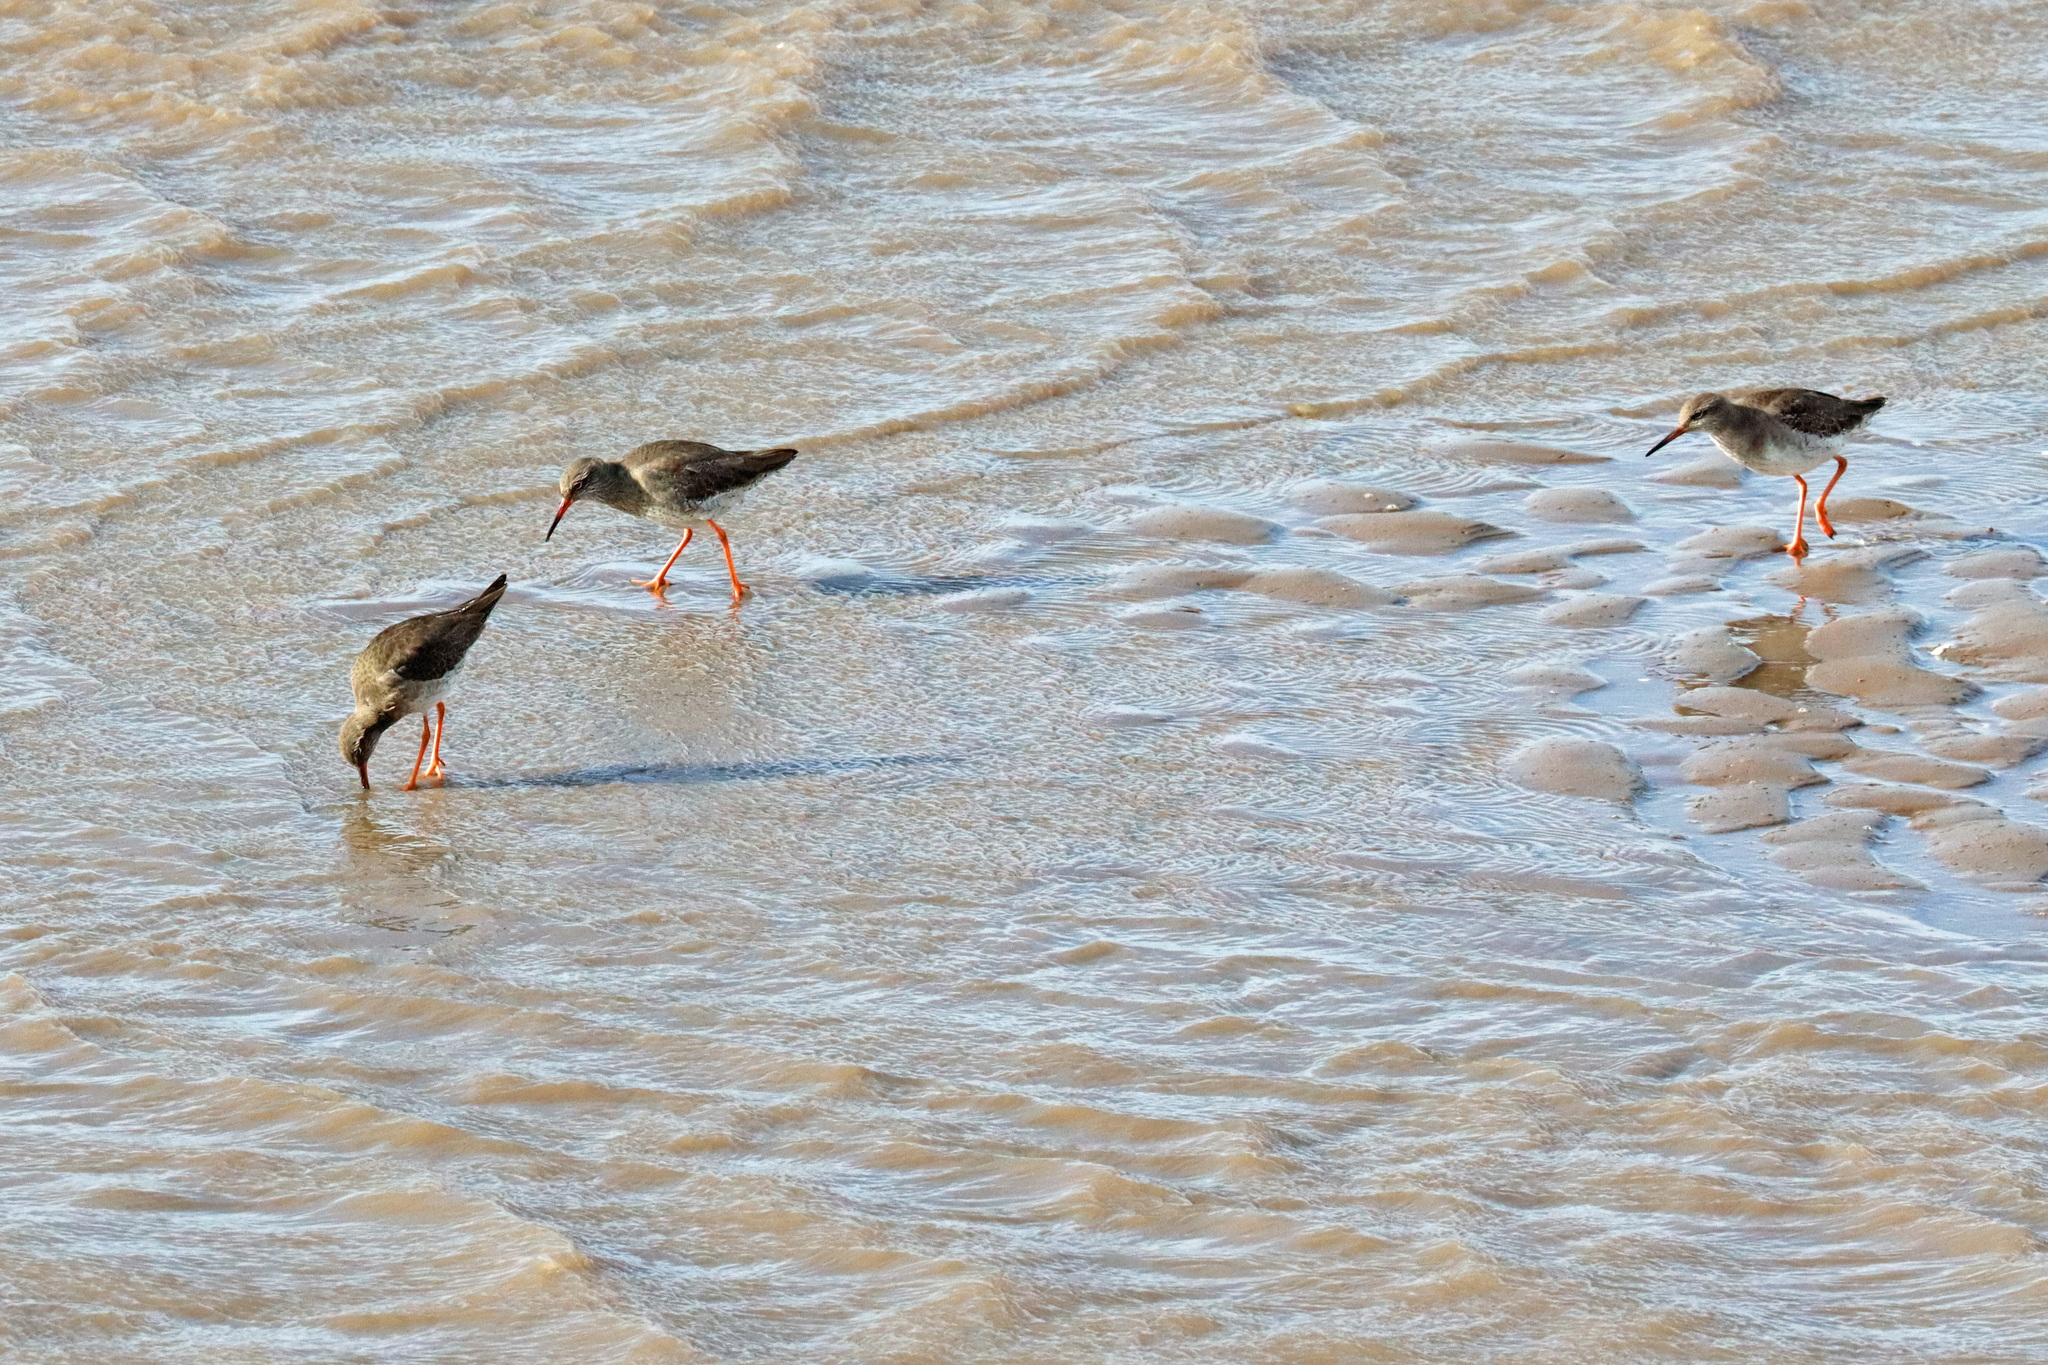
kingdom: Animalia
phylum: Chordata
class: Aves
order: Charadriiformes
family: Scolopacidae
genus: Tringa
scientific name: Tringa totanus
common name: Common redshank
